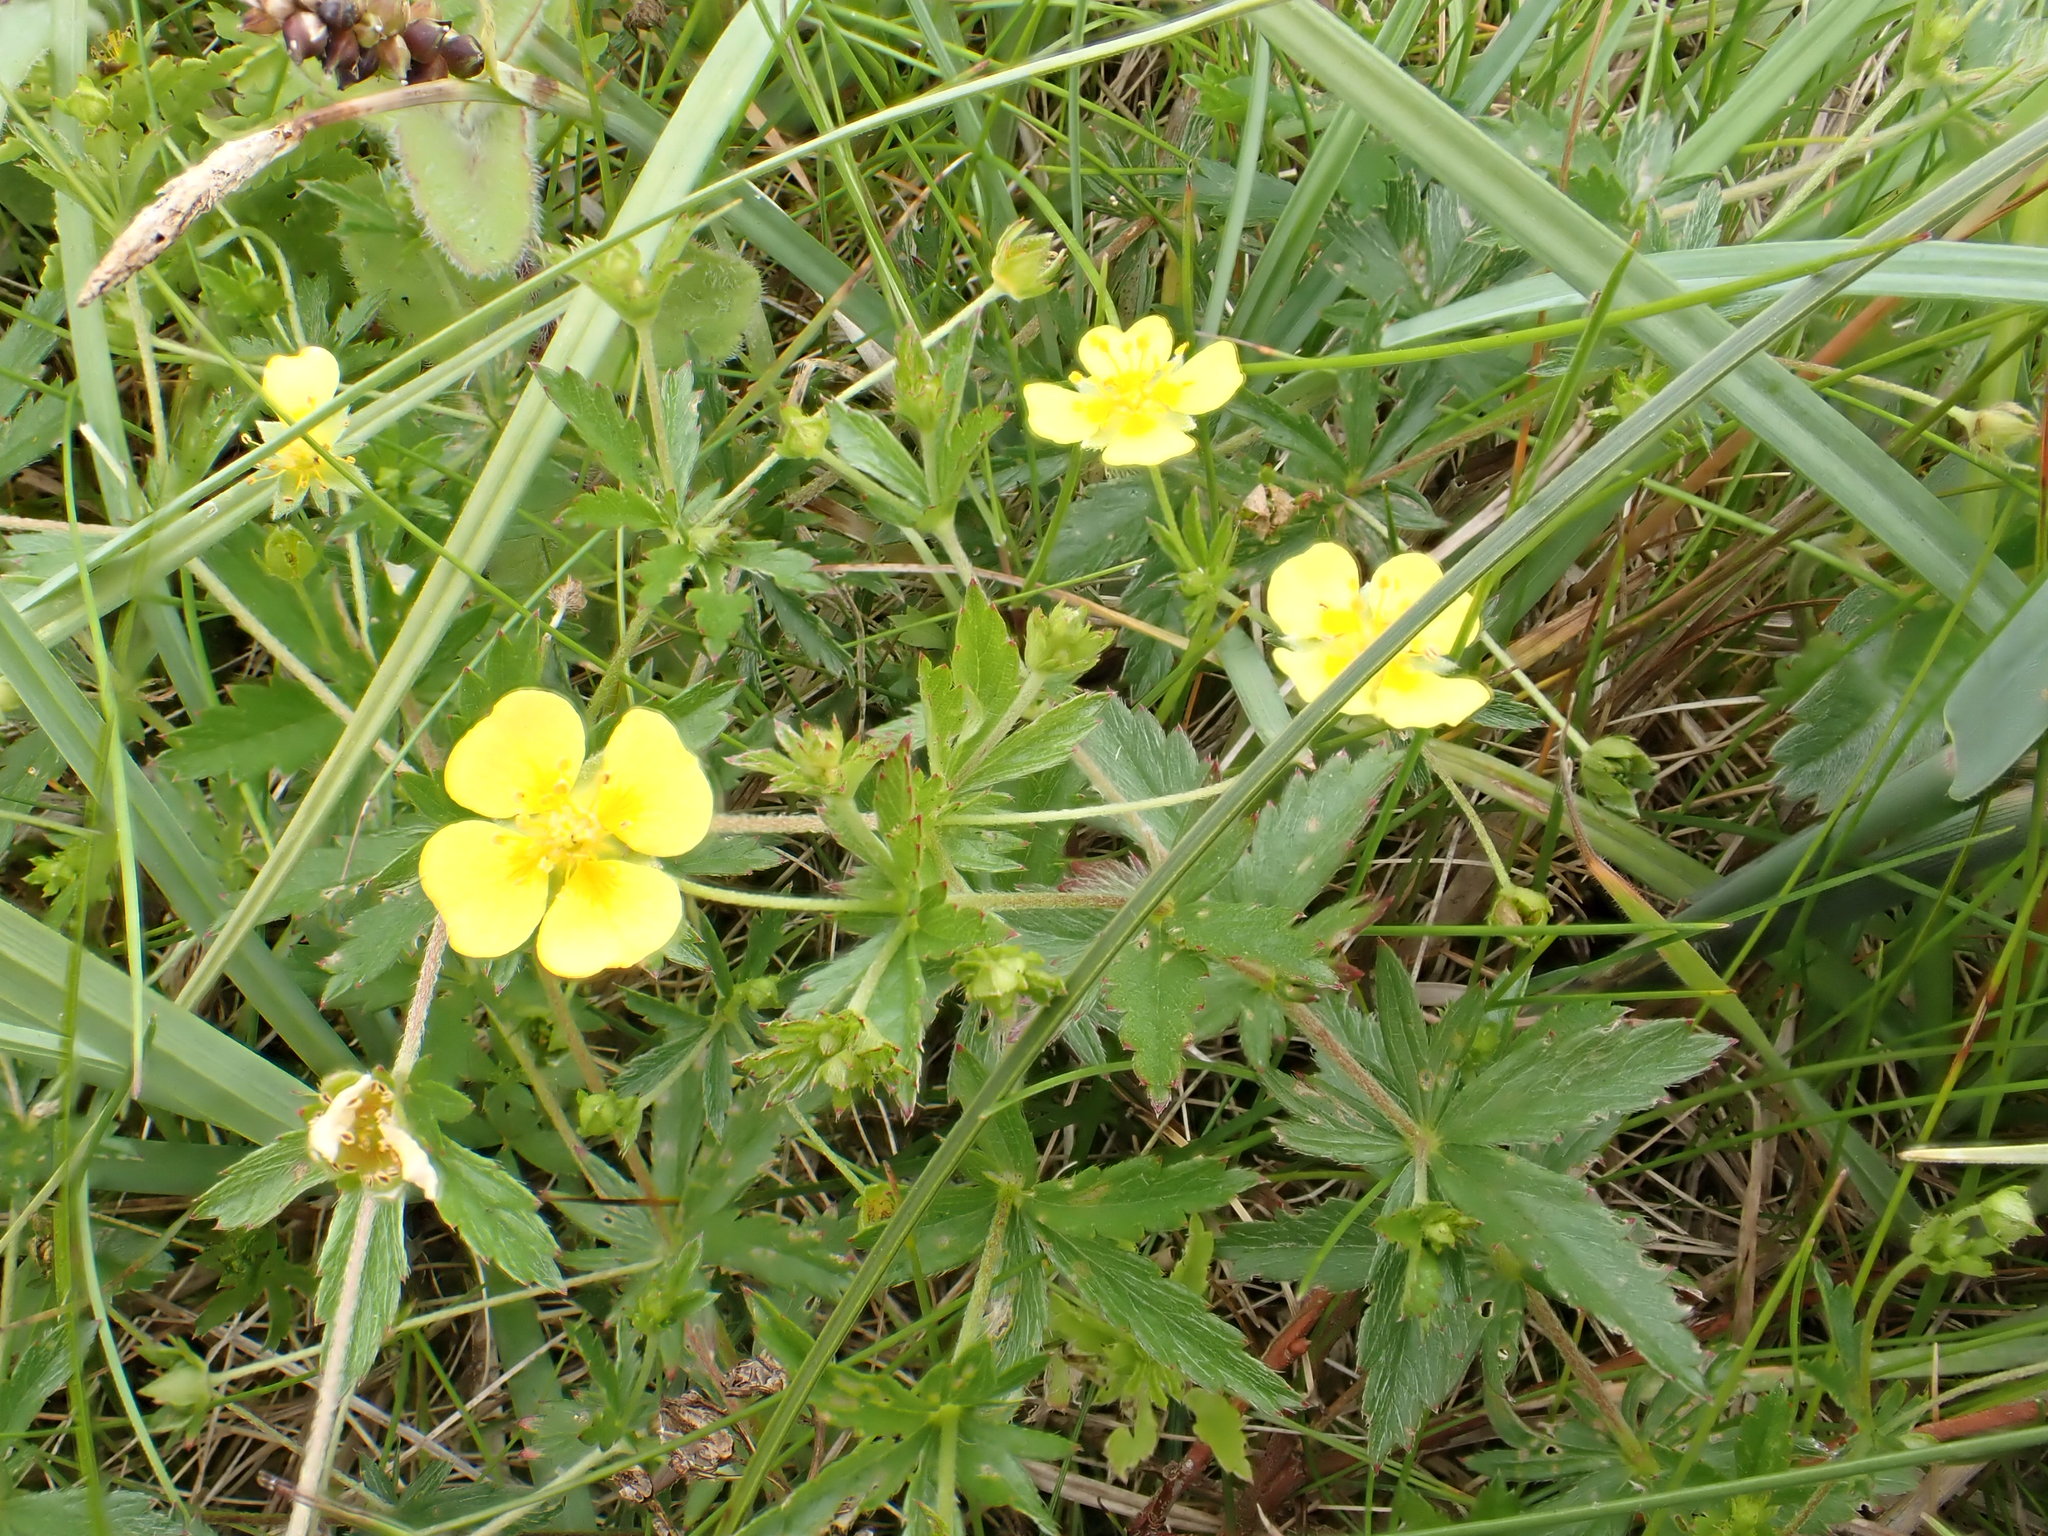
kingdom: Plantae
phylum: Tracheophyta
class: Magnoliopsida
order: Rosales
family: Rosaceae
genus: Potentilla
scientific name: Potentilla erecta
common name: Tormentil
